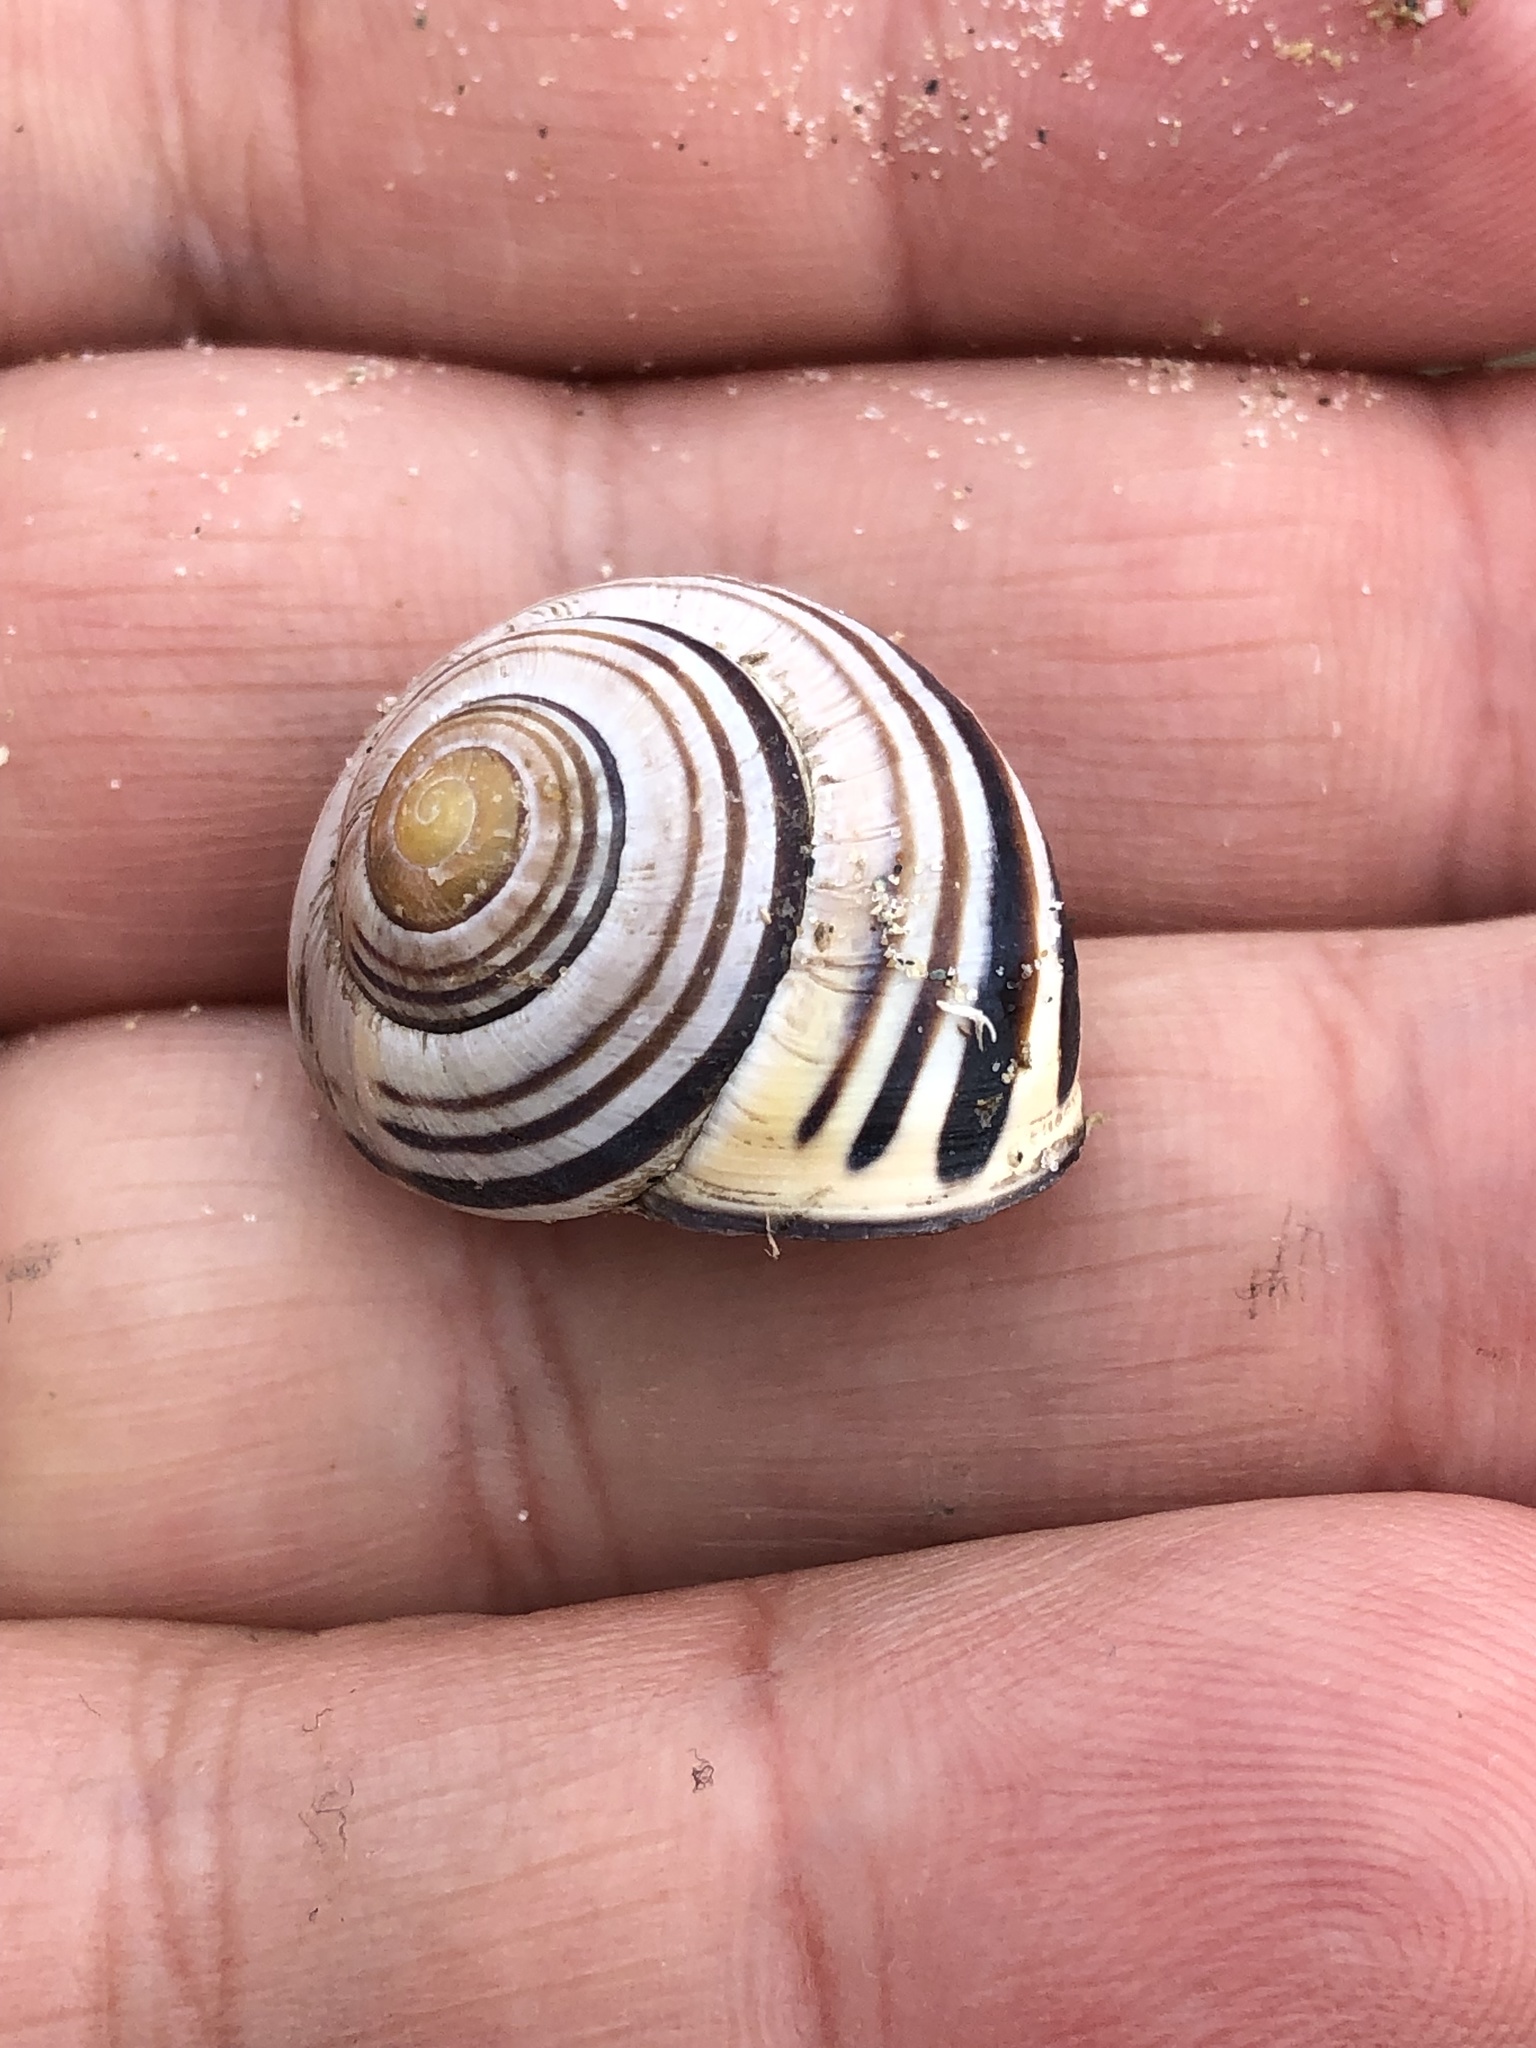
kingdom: Animalia
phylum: Mollusca
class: Gastropoda
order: Stylommatophora
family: Helicidae
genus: Cepaea
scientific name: Cepaea nemoralis
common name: Grovesnail
